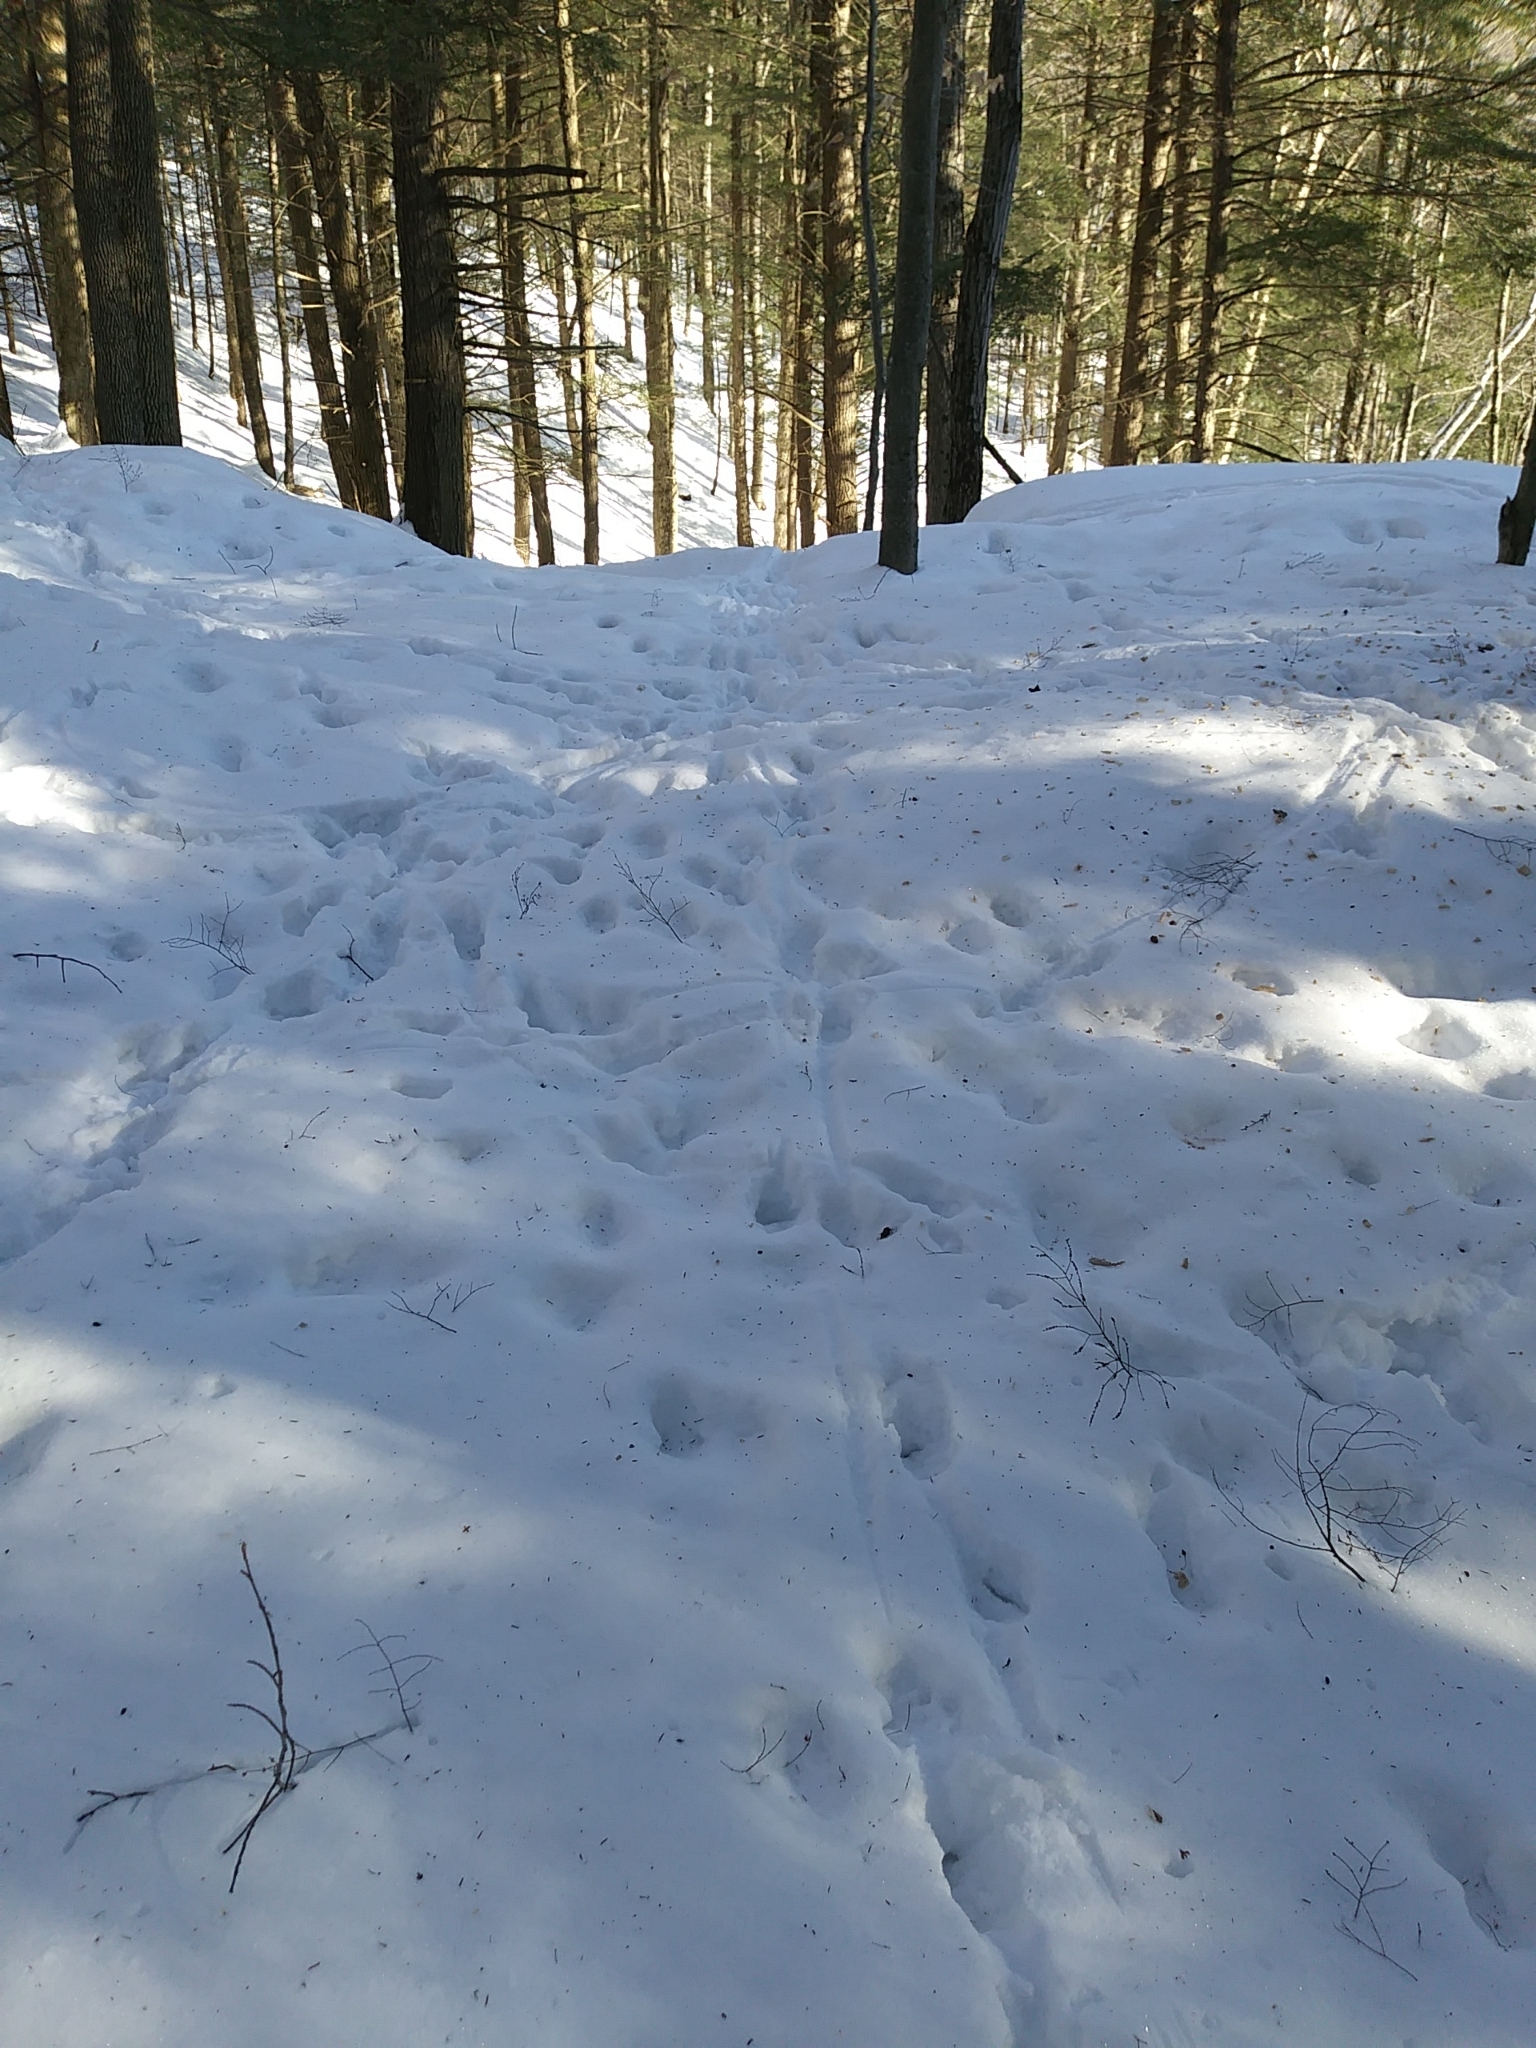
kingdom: Animalia
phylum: Chordata
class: Mammalia
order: Artiodactyla
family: Cervidae
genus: Odocoileus
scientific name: Odocoileus virginianus
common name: White-tailed deer
